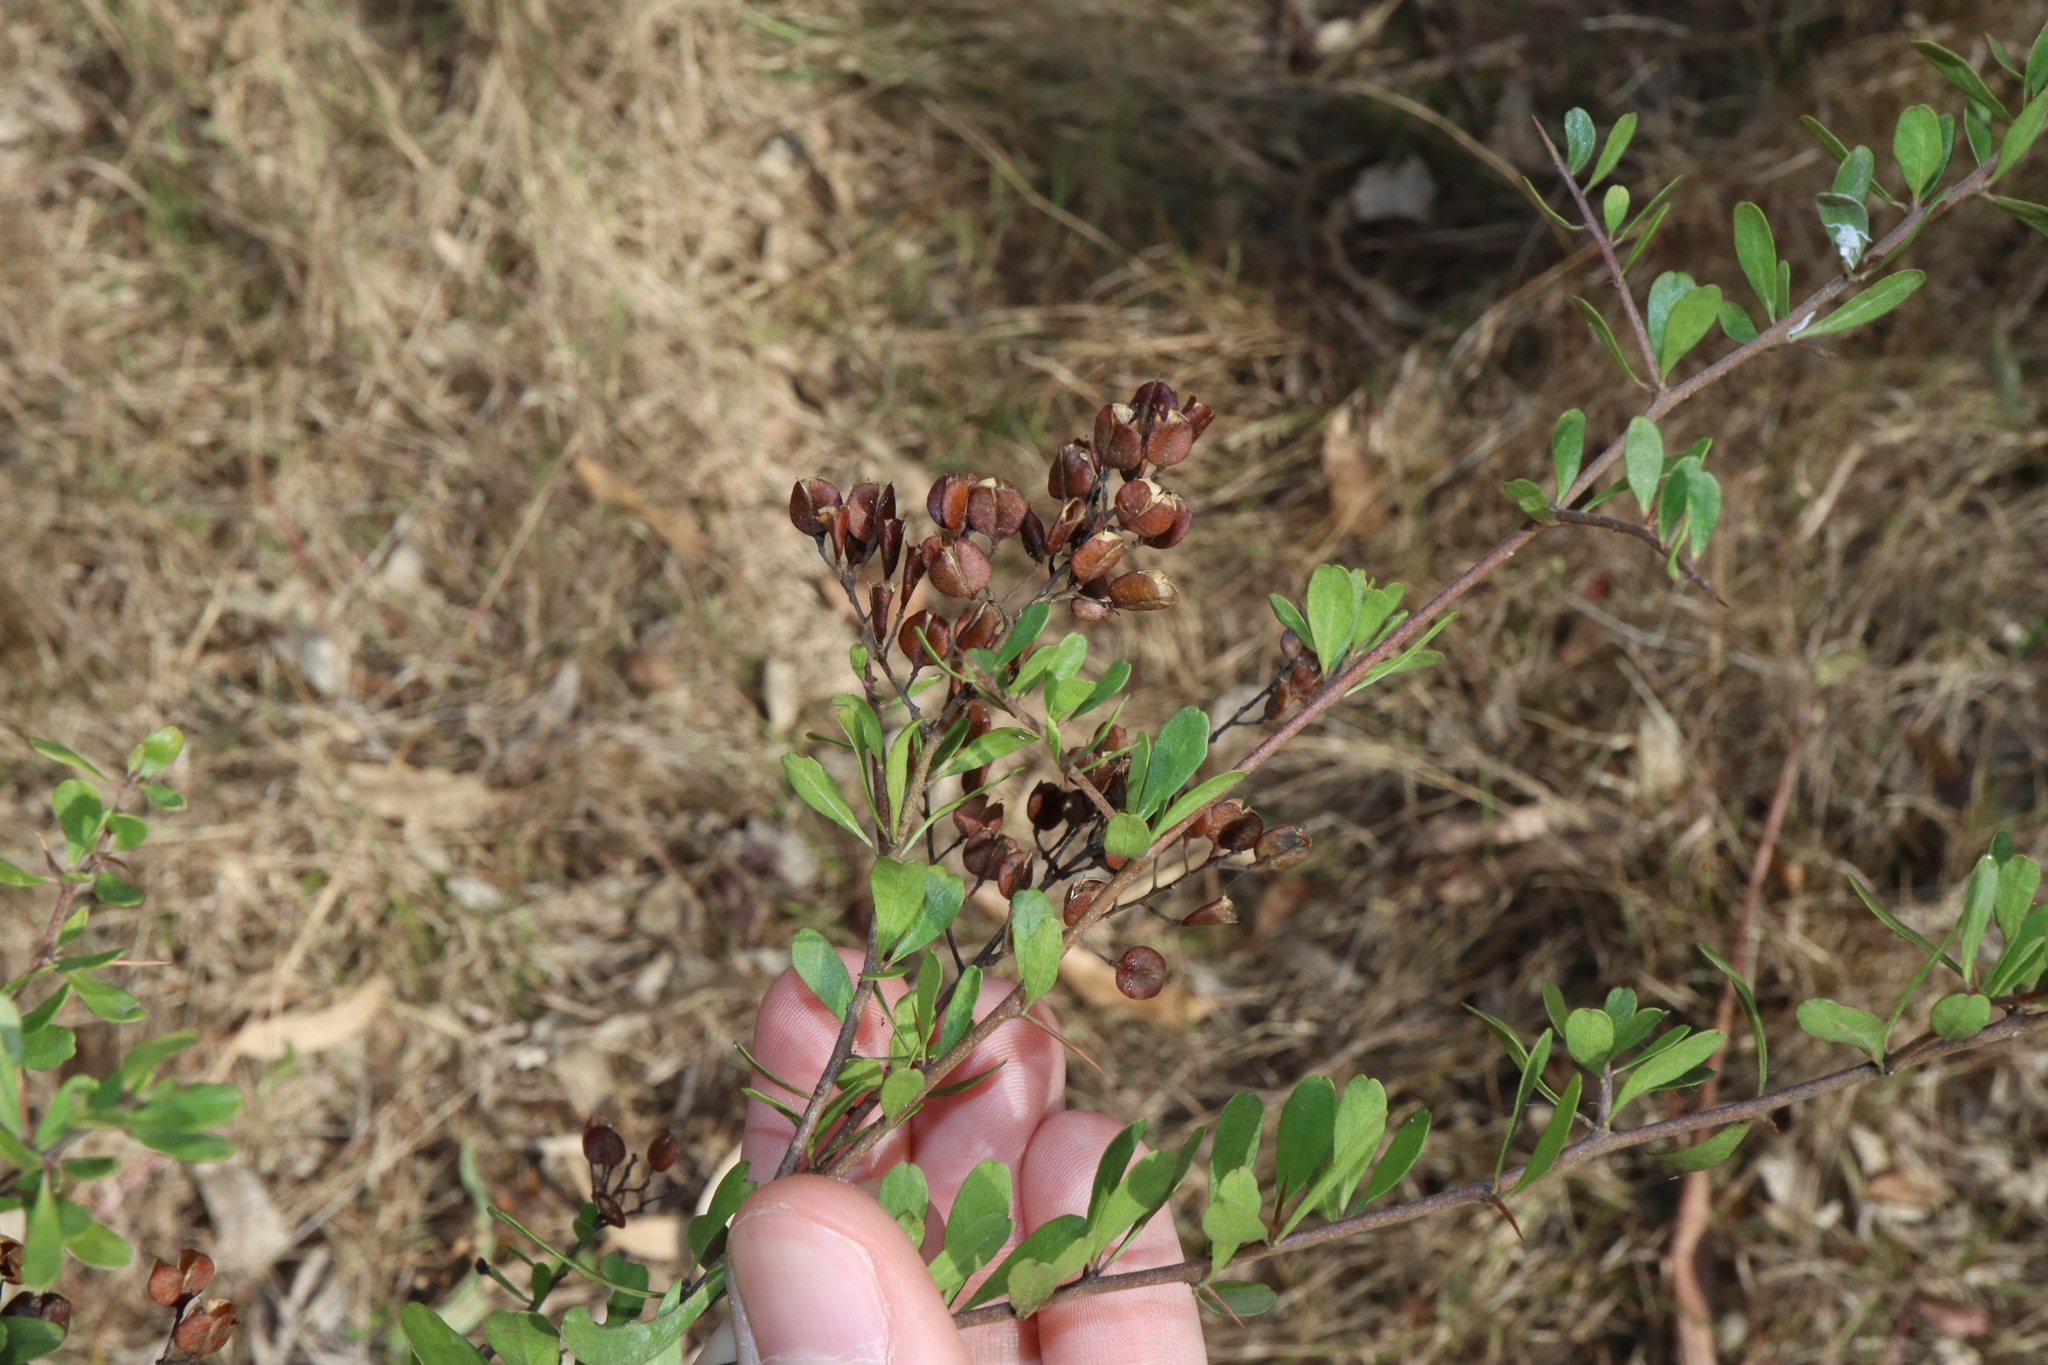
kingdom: Plantae
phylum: Tracheophyta
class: Magnoliopsida
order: Apiales
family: Pittosporaceae
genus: Bursaria
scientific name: Bursaria spinosa
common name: Australian blackthorn
